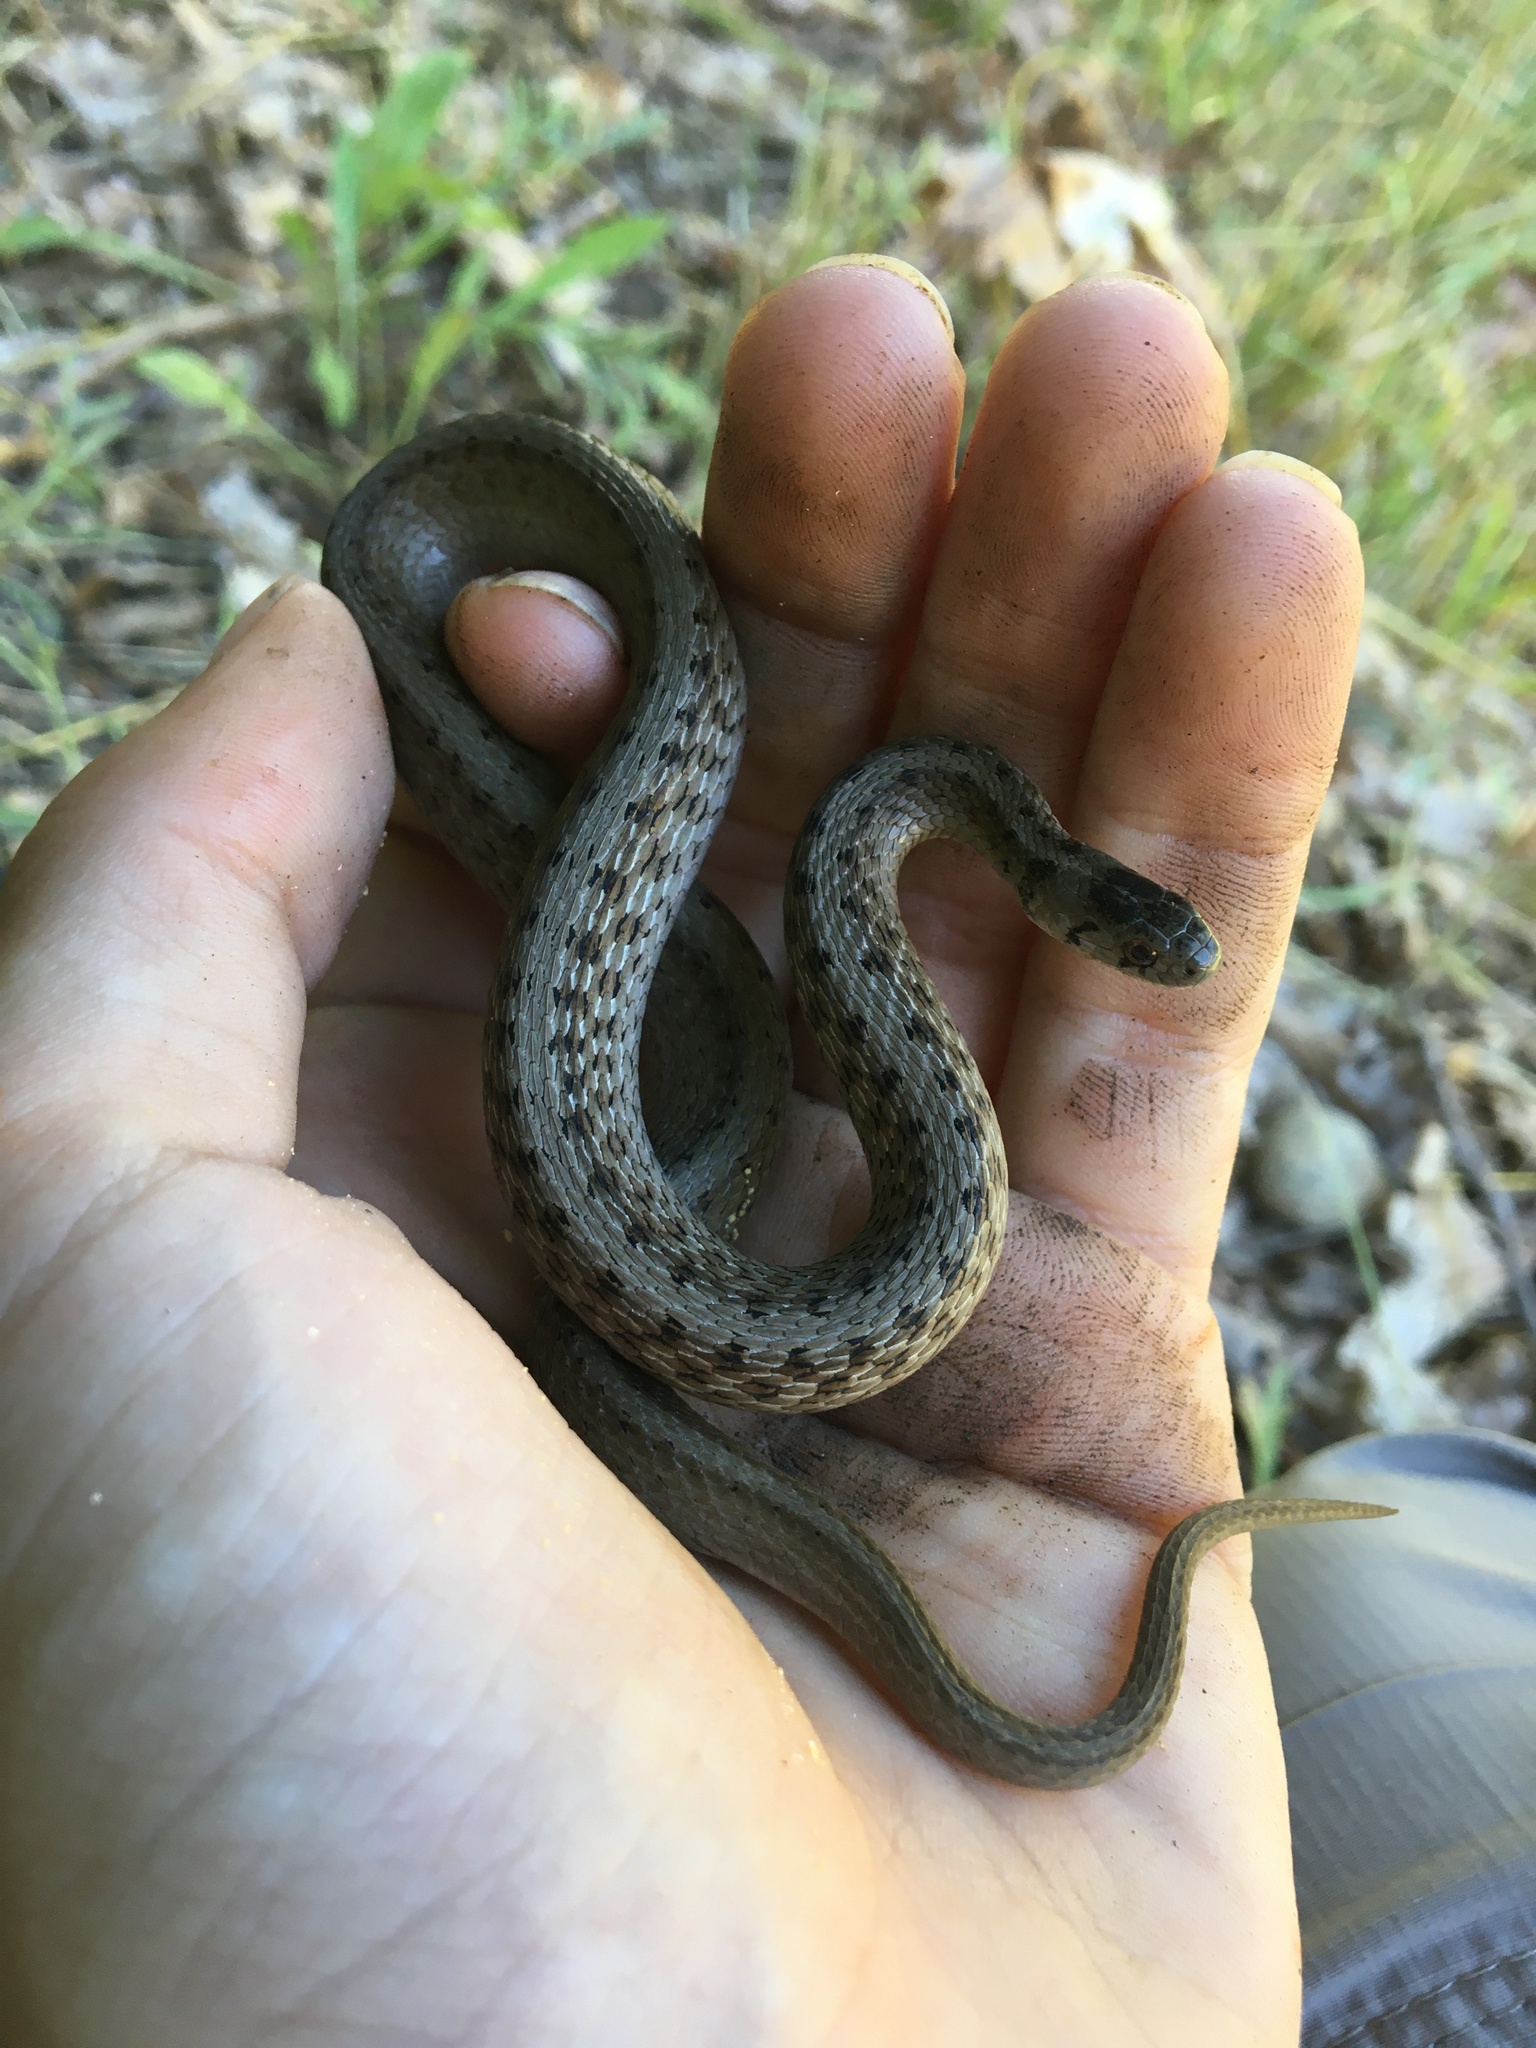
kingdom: Animalia
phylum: Chordata
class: Squamata
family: Colubridae
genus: Storeria
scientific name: Storeria dekayi
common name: (dekay’s) brown snake
